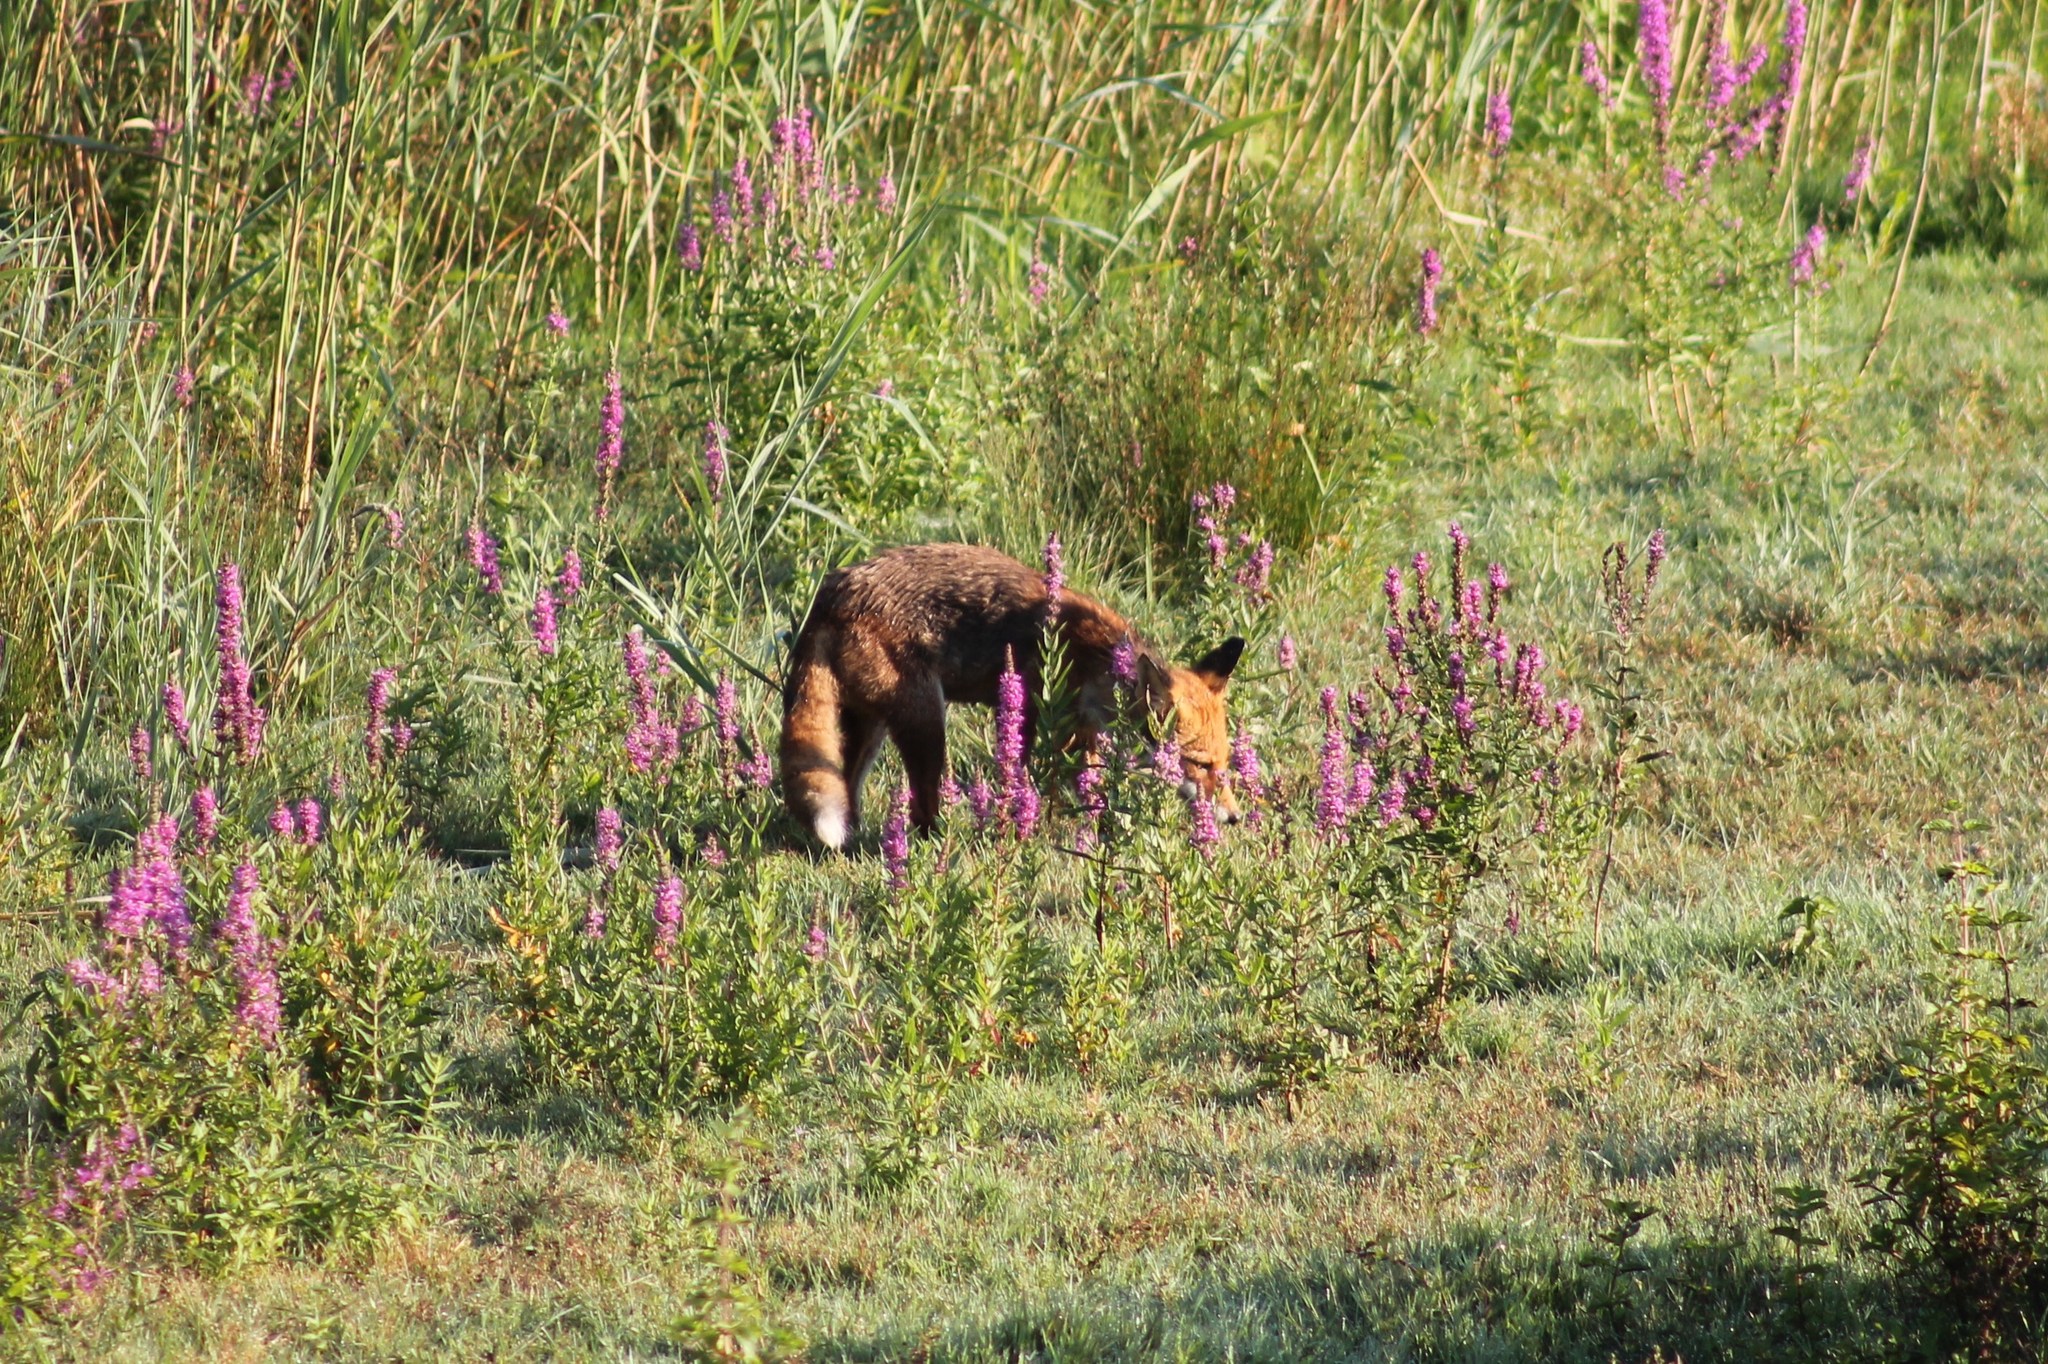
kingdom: Animalia
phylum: Chordata
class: Mammalia
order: Carnivora
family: Canidae
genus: Vulpes
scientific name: Vulpes vulpes
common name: Red fox
